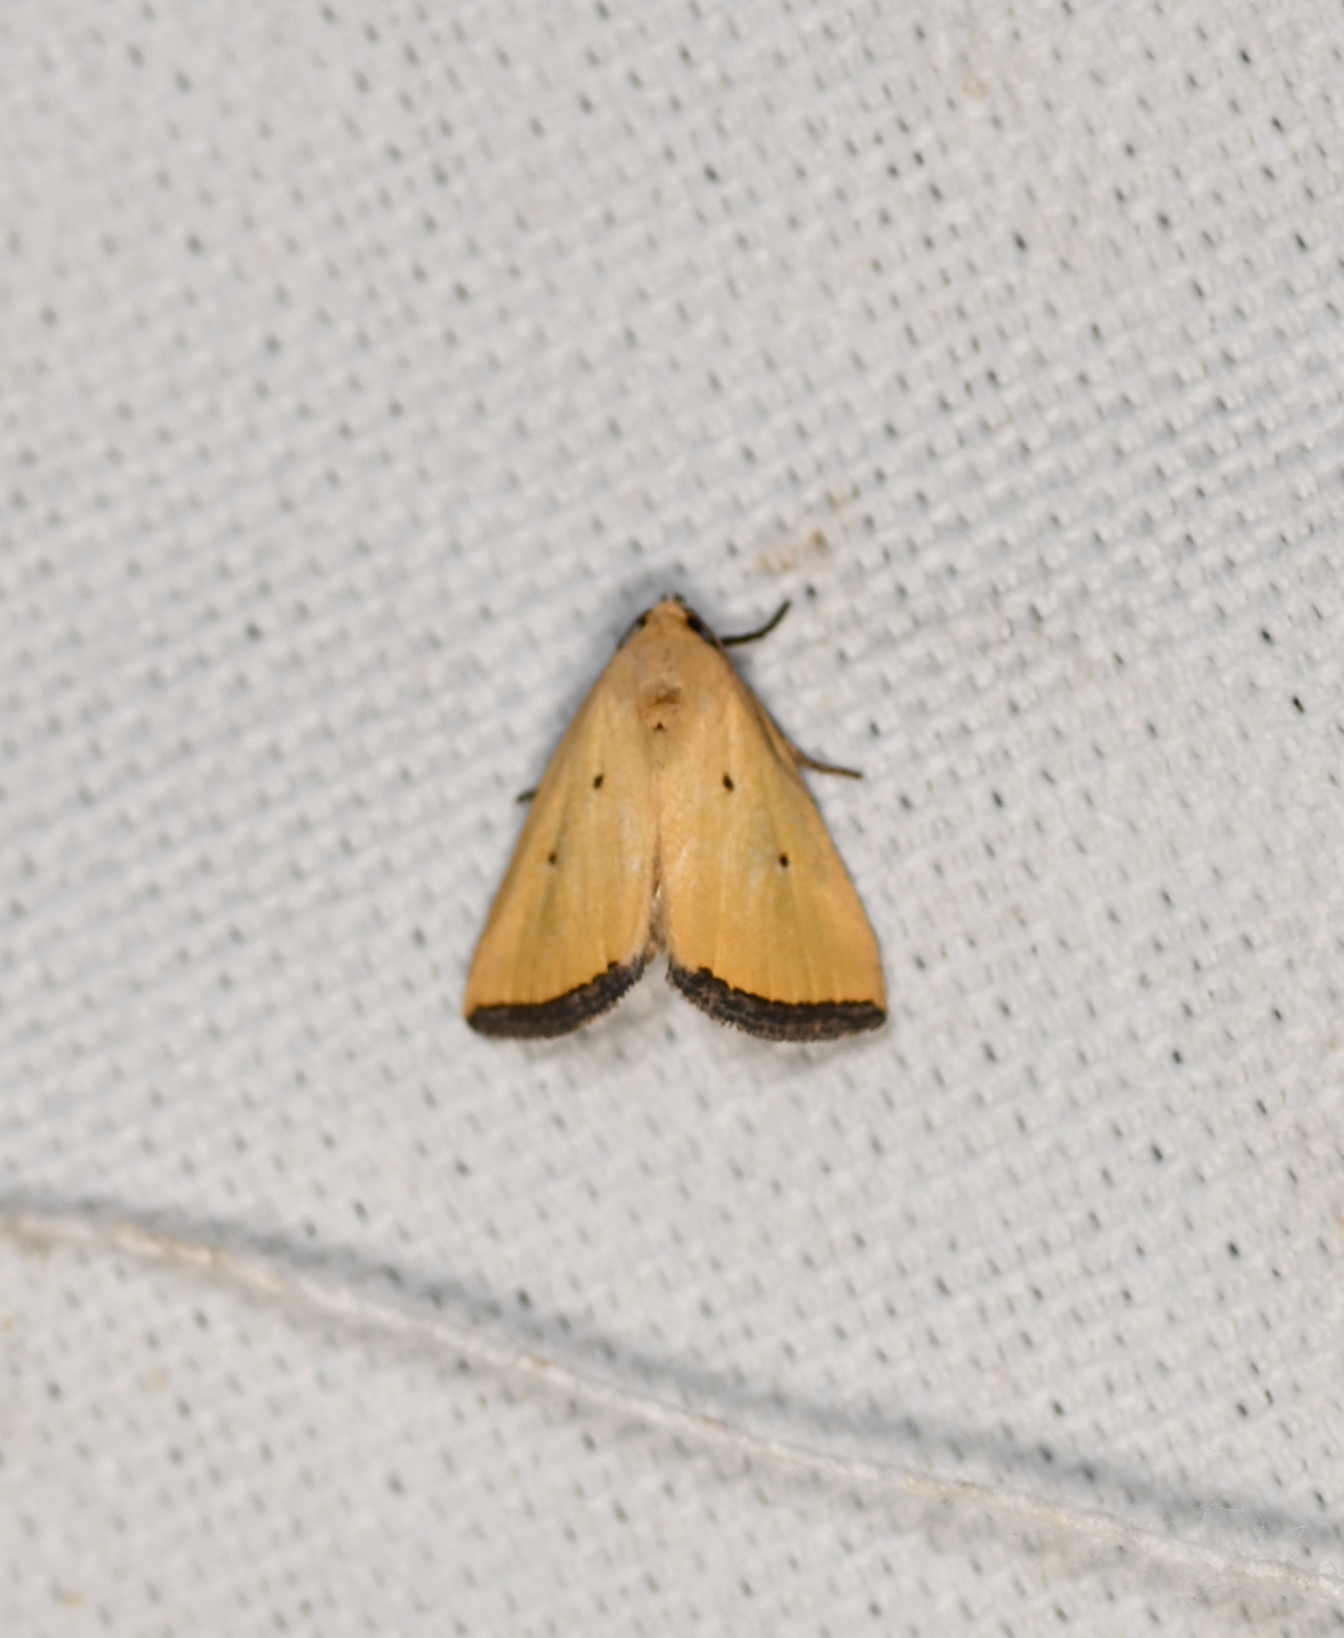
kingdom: Animalia
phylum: Arthropoda
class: Insecta
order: Lepidoptera
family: Noctuidae
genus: Marimatha
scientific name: Marimatha nigrofimbria
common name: Black-bordered lemon moth
